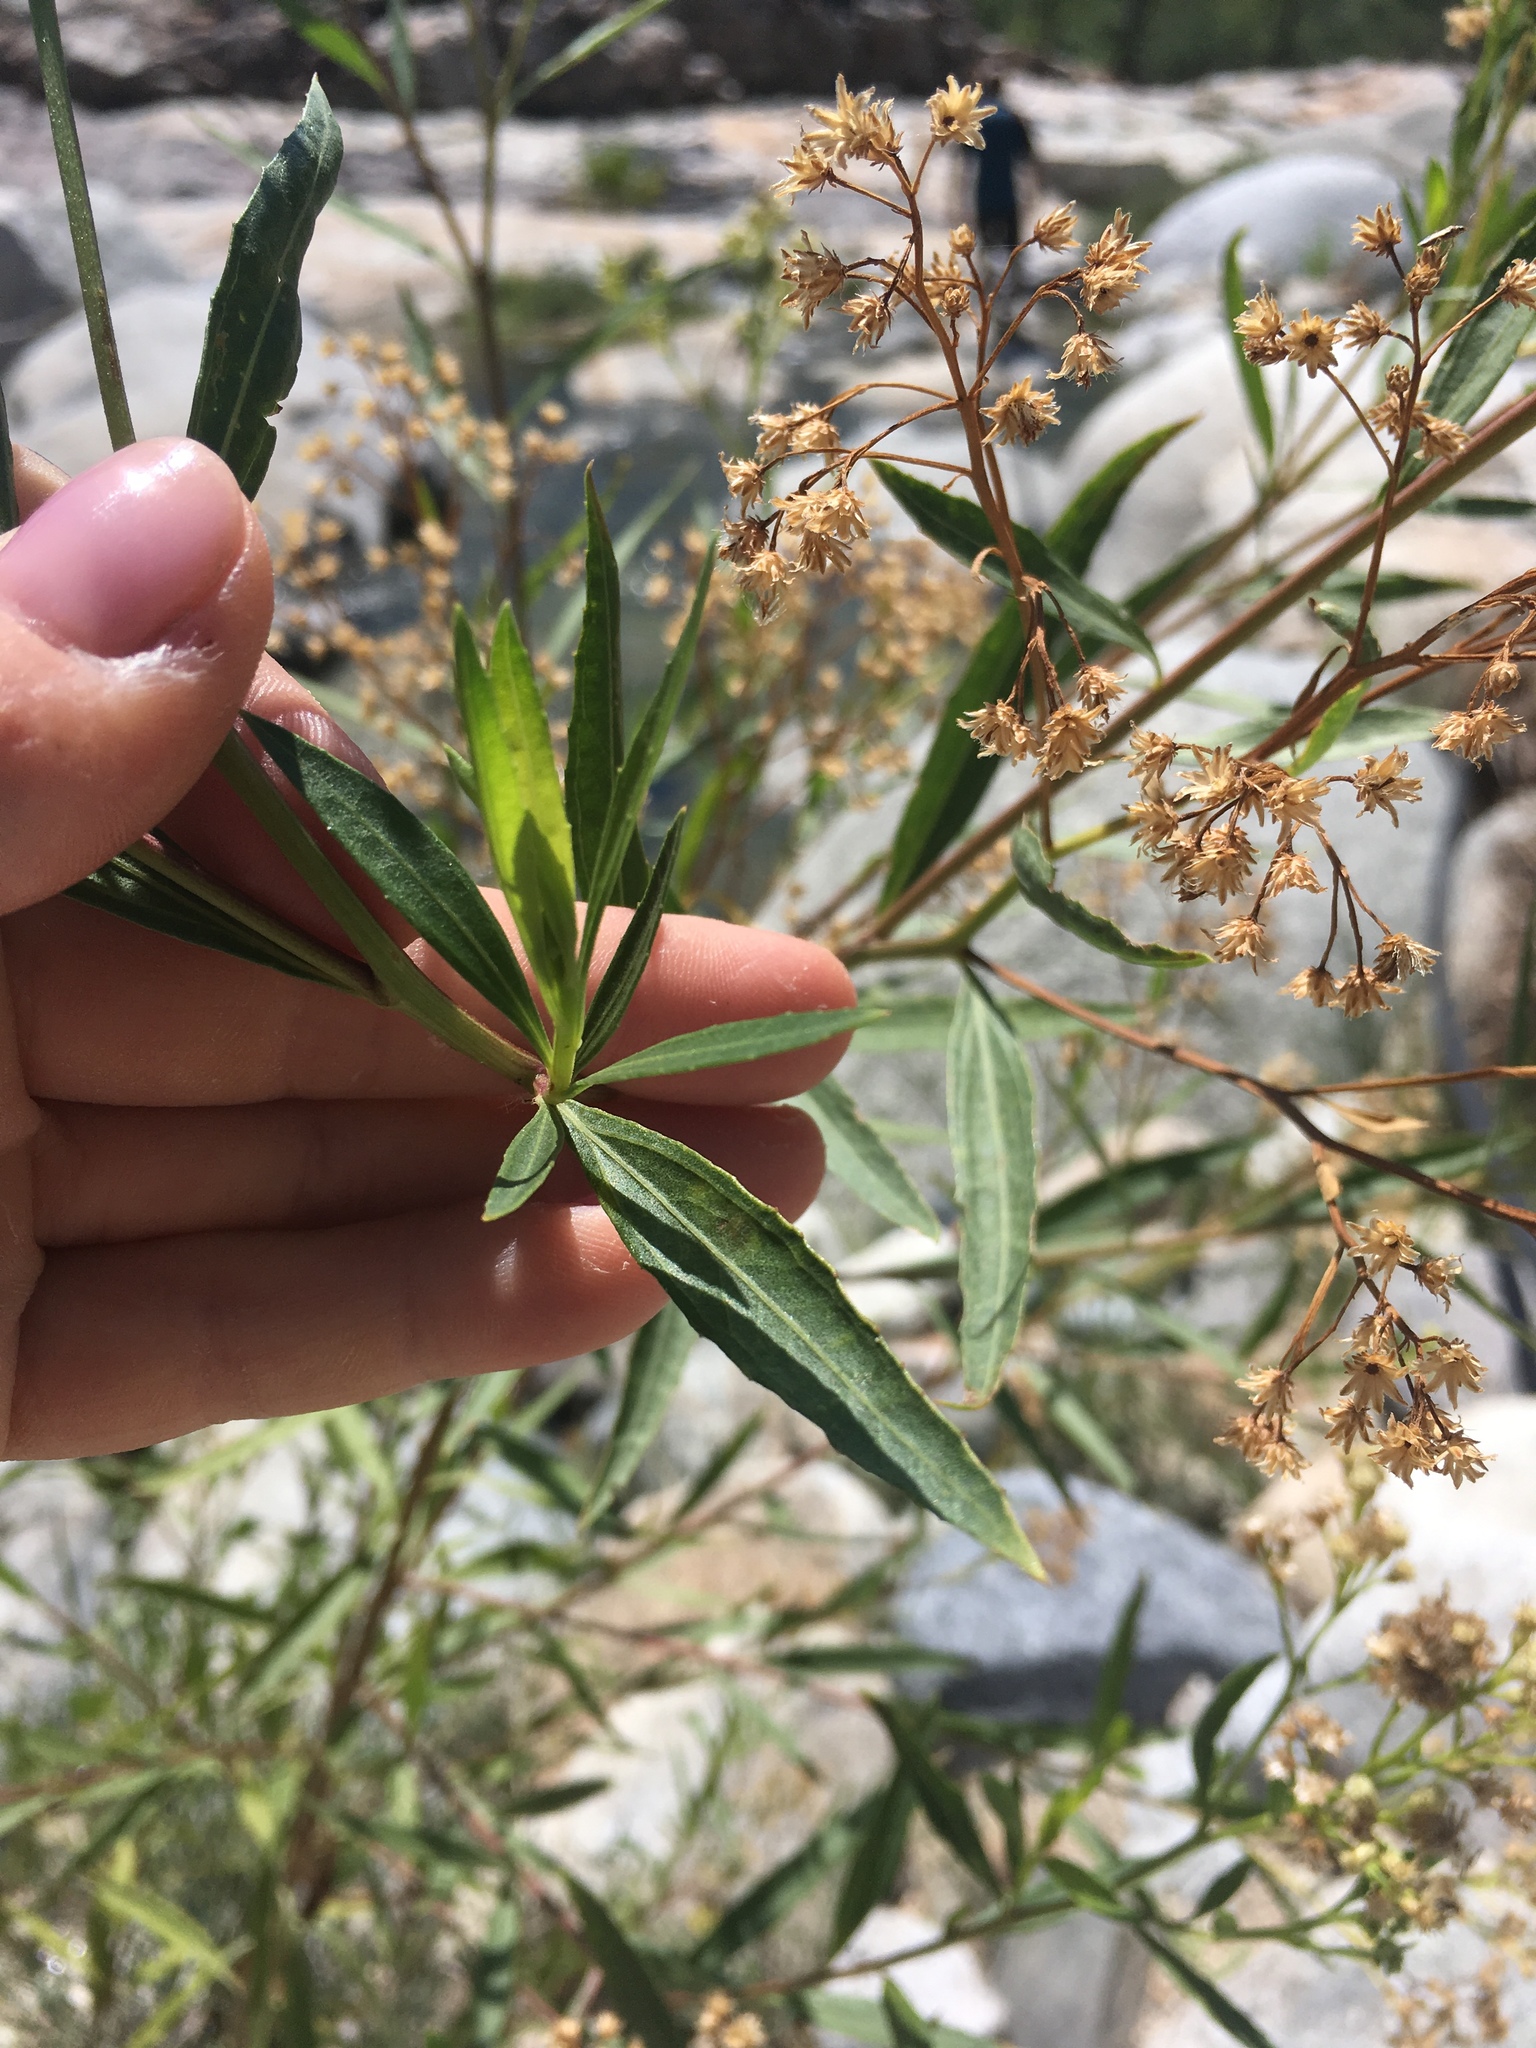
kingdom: Plantae
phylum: Tracheophyta
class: Magnoliopsida
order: Asterales
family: Asteraceae
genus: Baccharis
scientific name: Baccharis salicifolia
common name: Sticky baccharis
